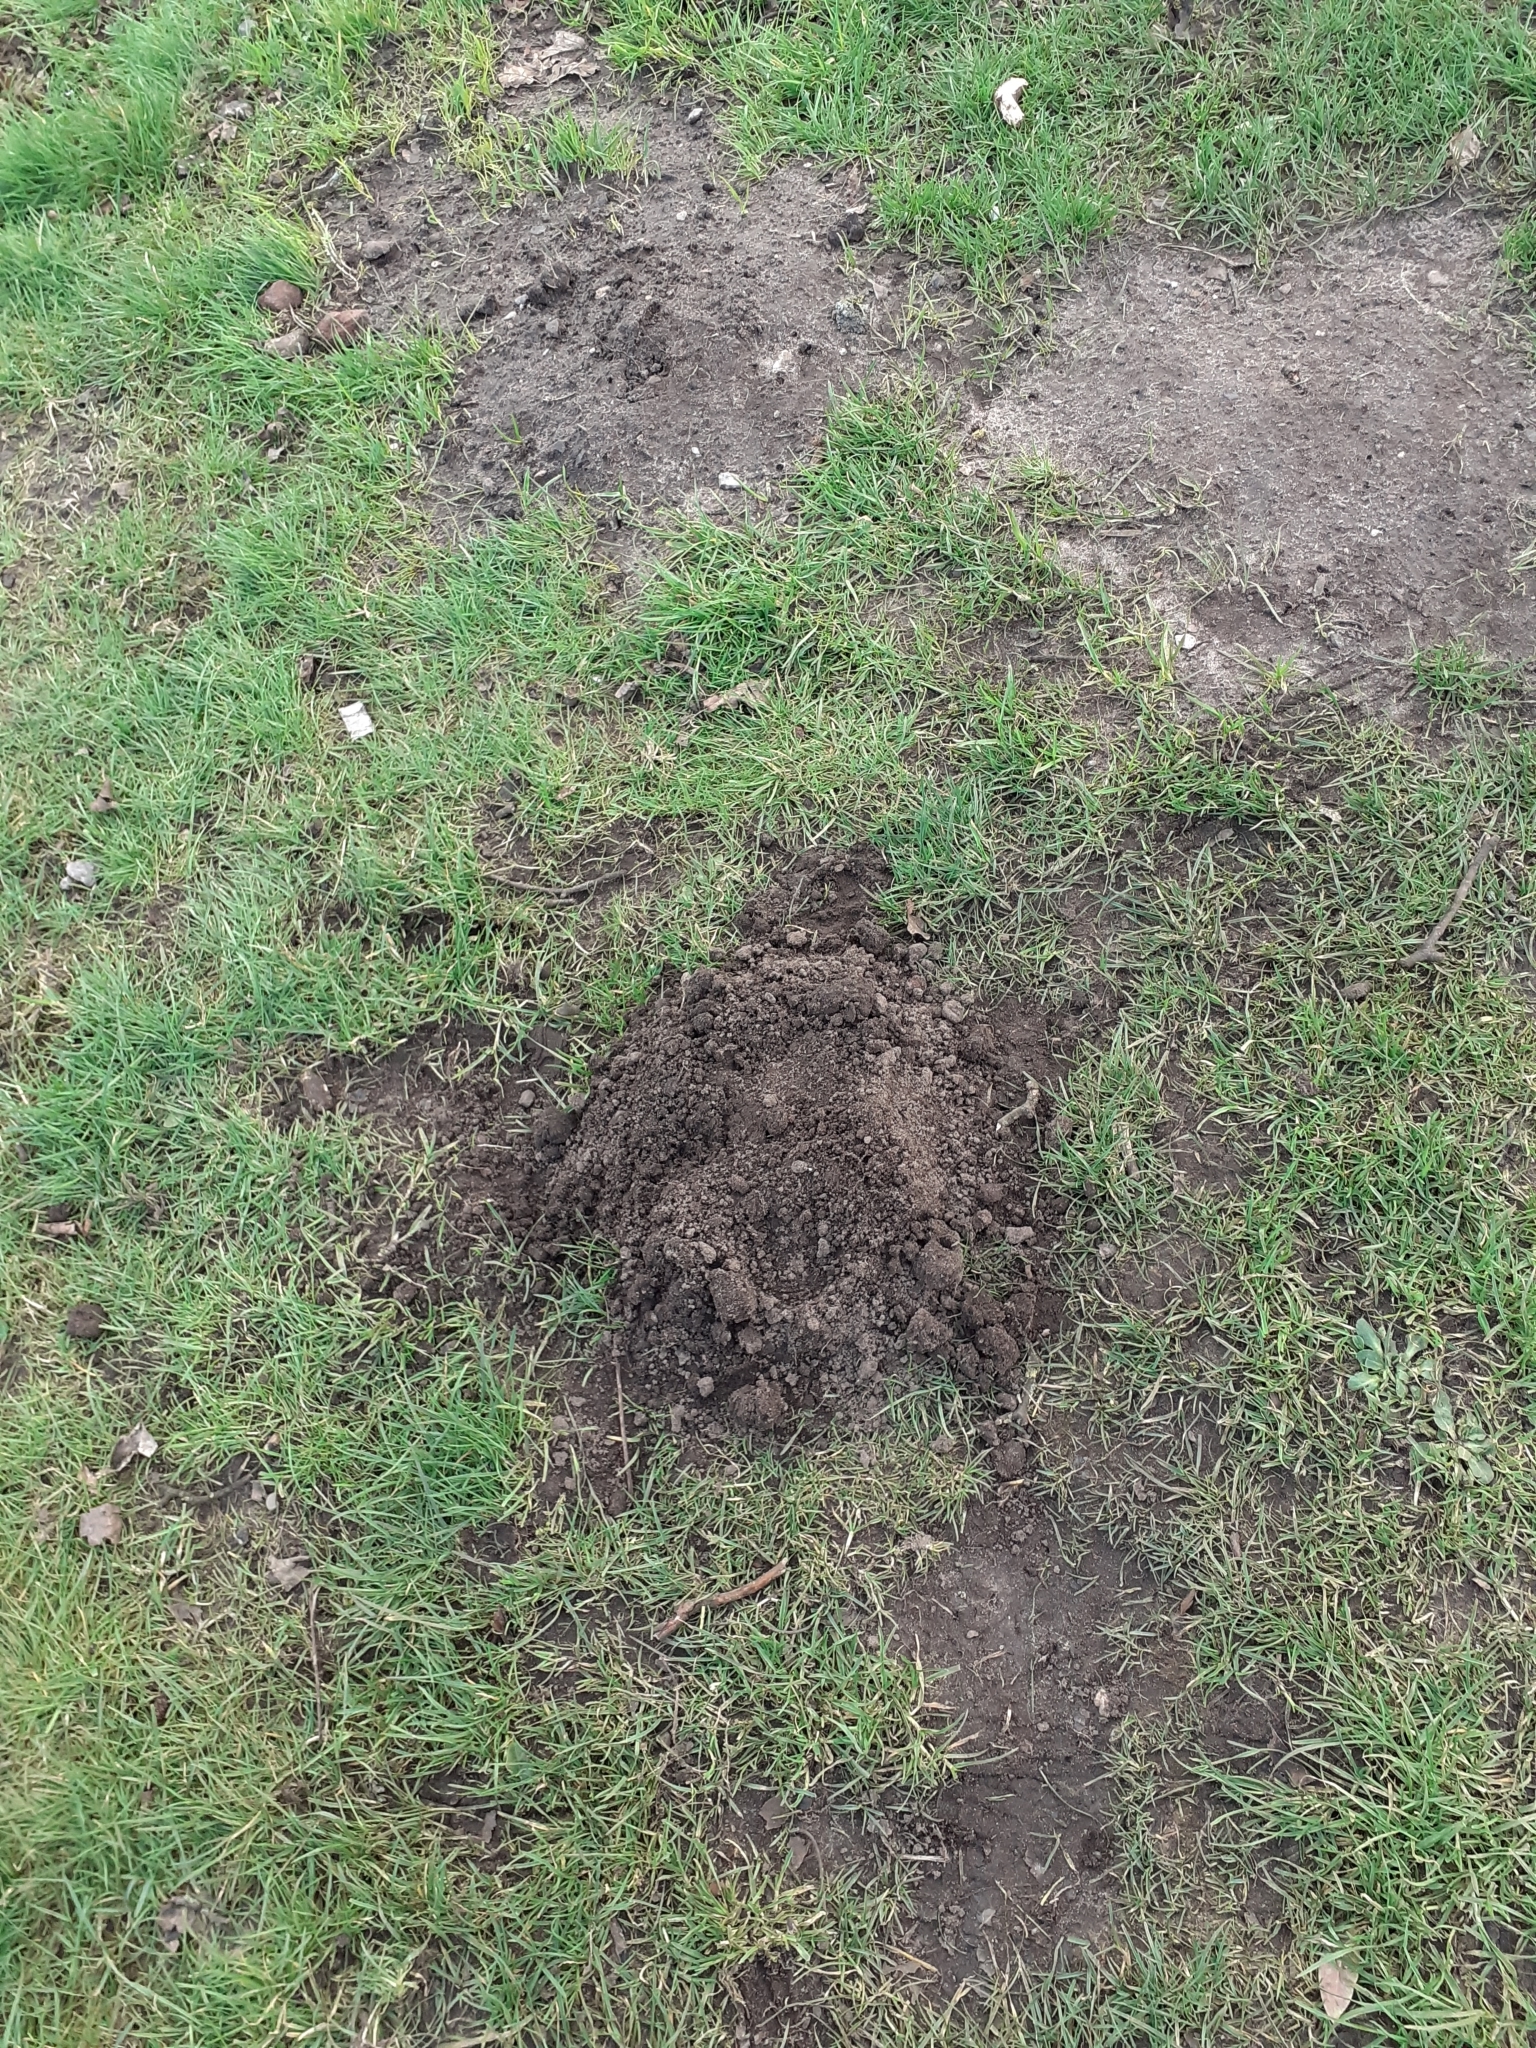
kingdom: Animalia
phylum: Chordata
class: Mammalia
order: Soricomorpha
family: Talpidae
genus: Talpa
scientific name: Talpa europaea
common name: European mole
